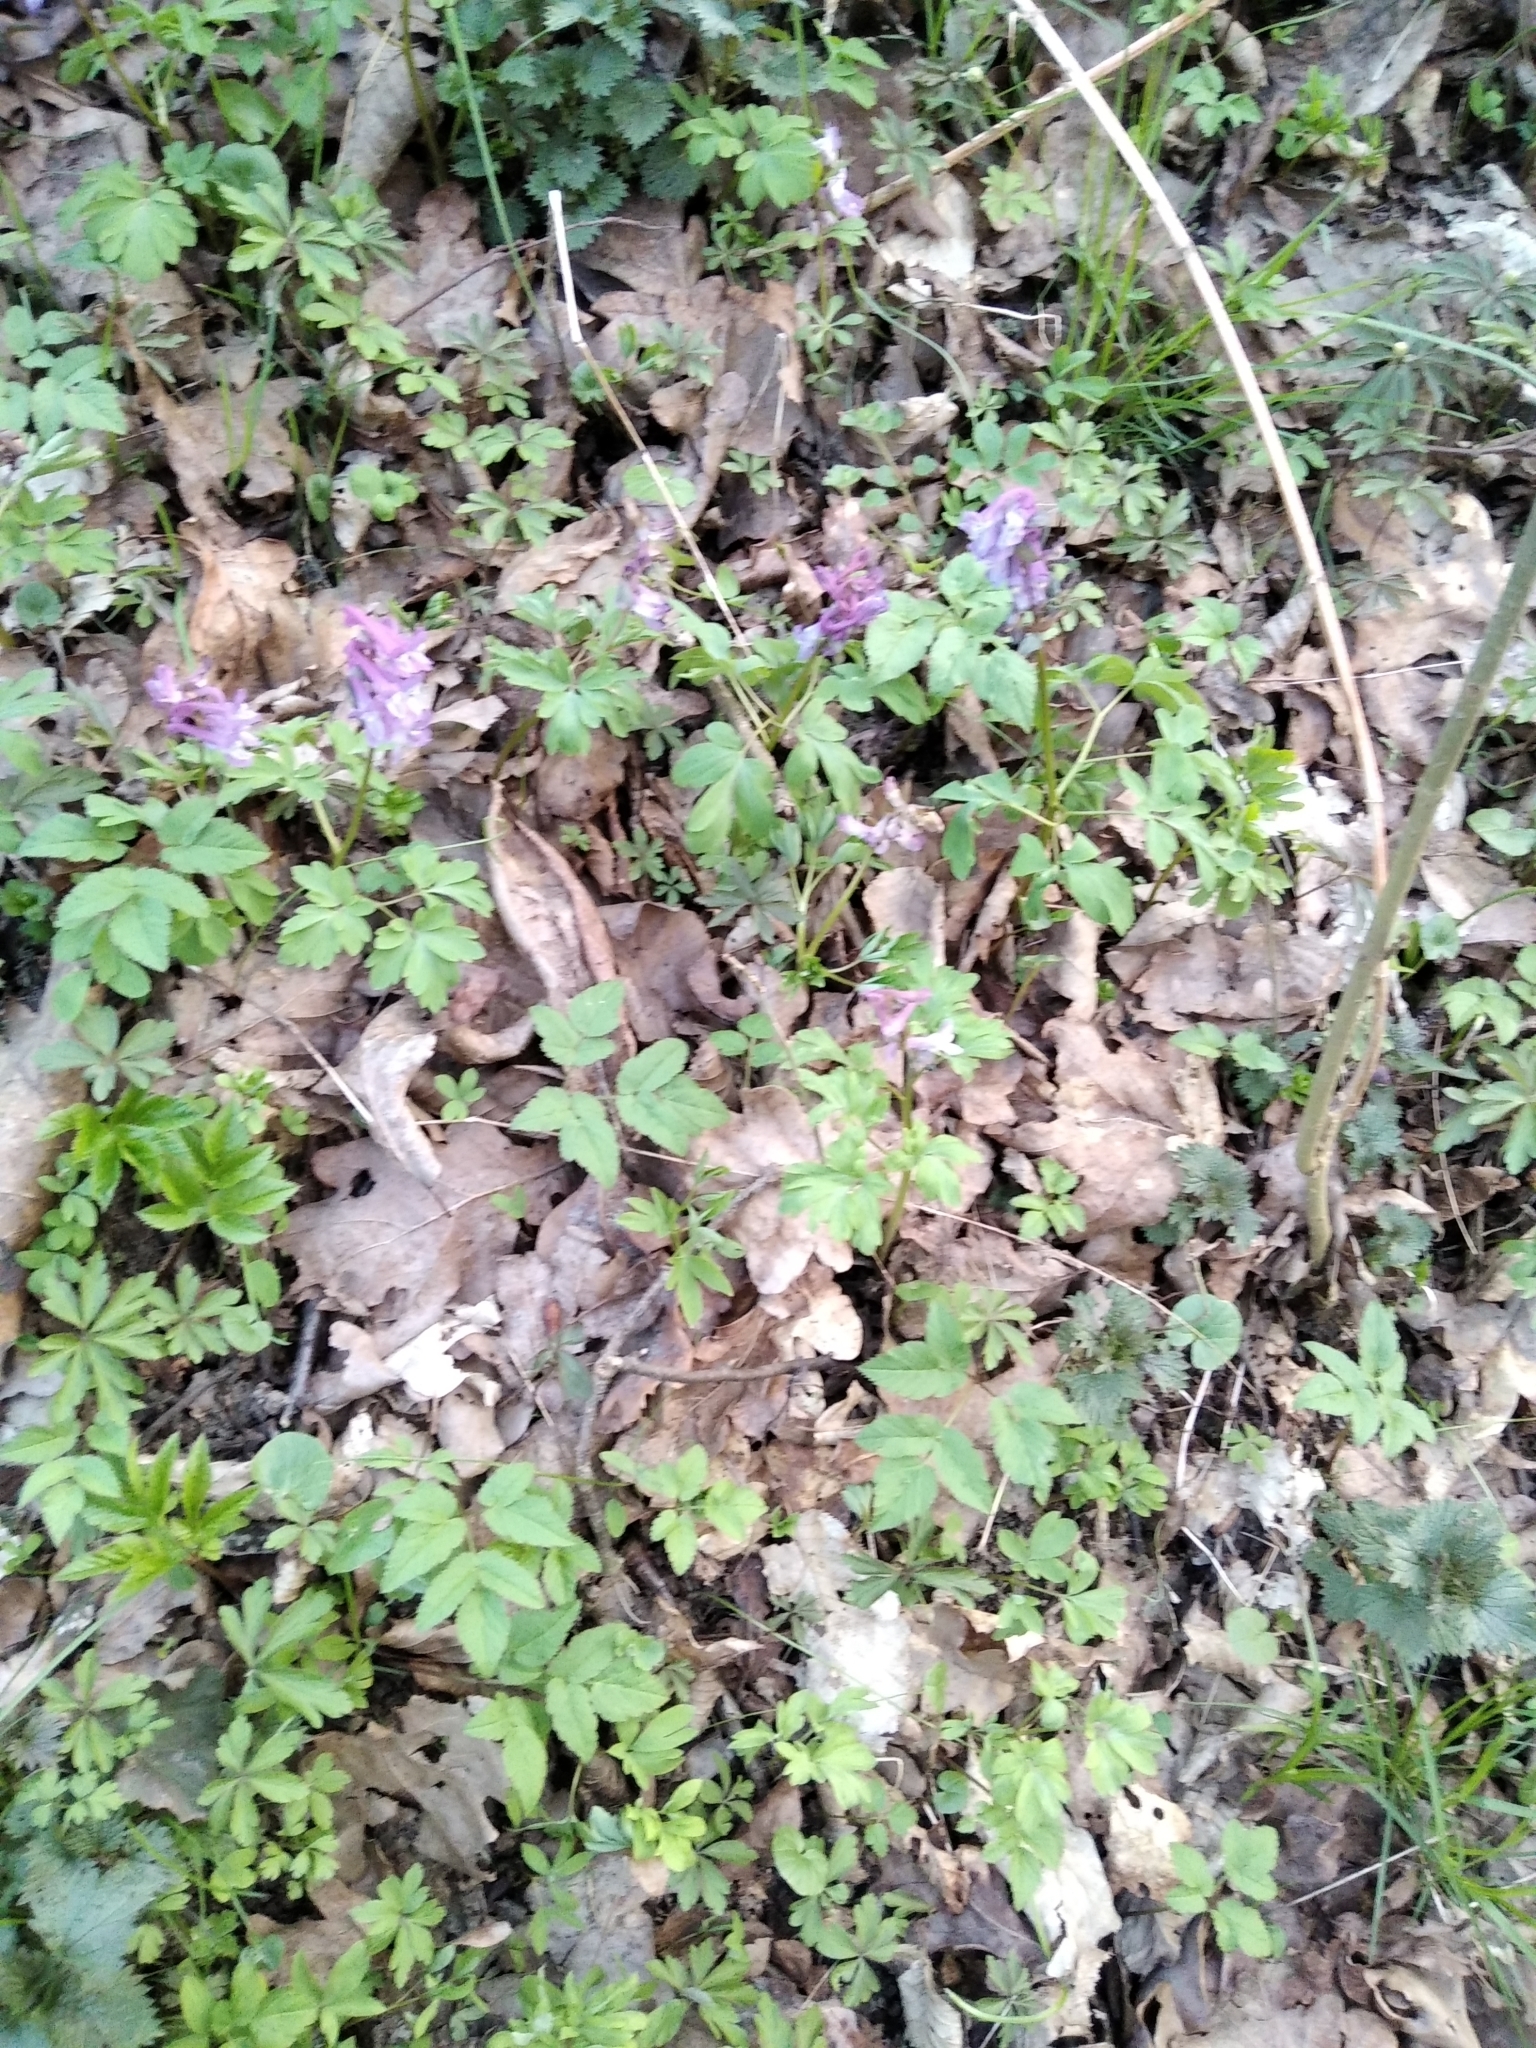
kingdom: Plantae
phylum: Tracheophyta
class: Magnoliopsida
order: Ranunculales
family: Papaveraceae
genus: Corydalis
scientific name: Corydalis cava
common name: Hollowroot
